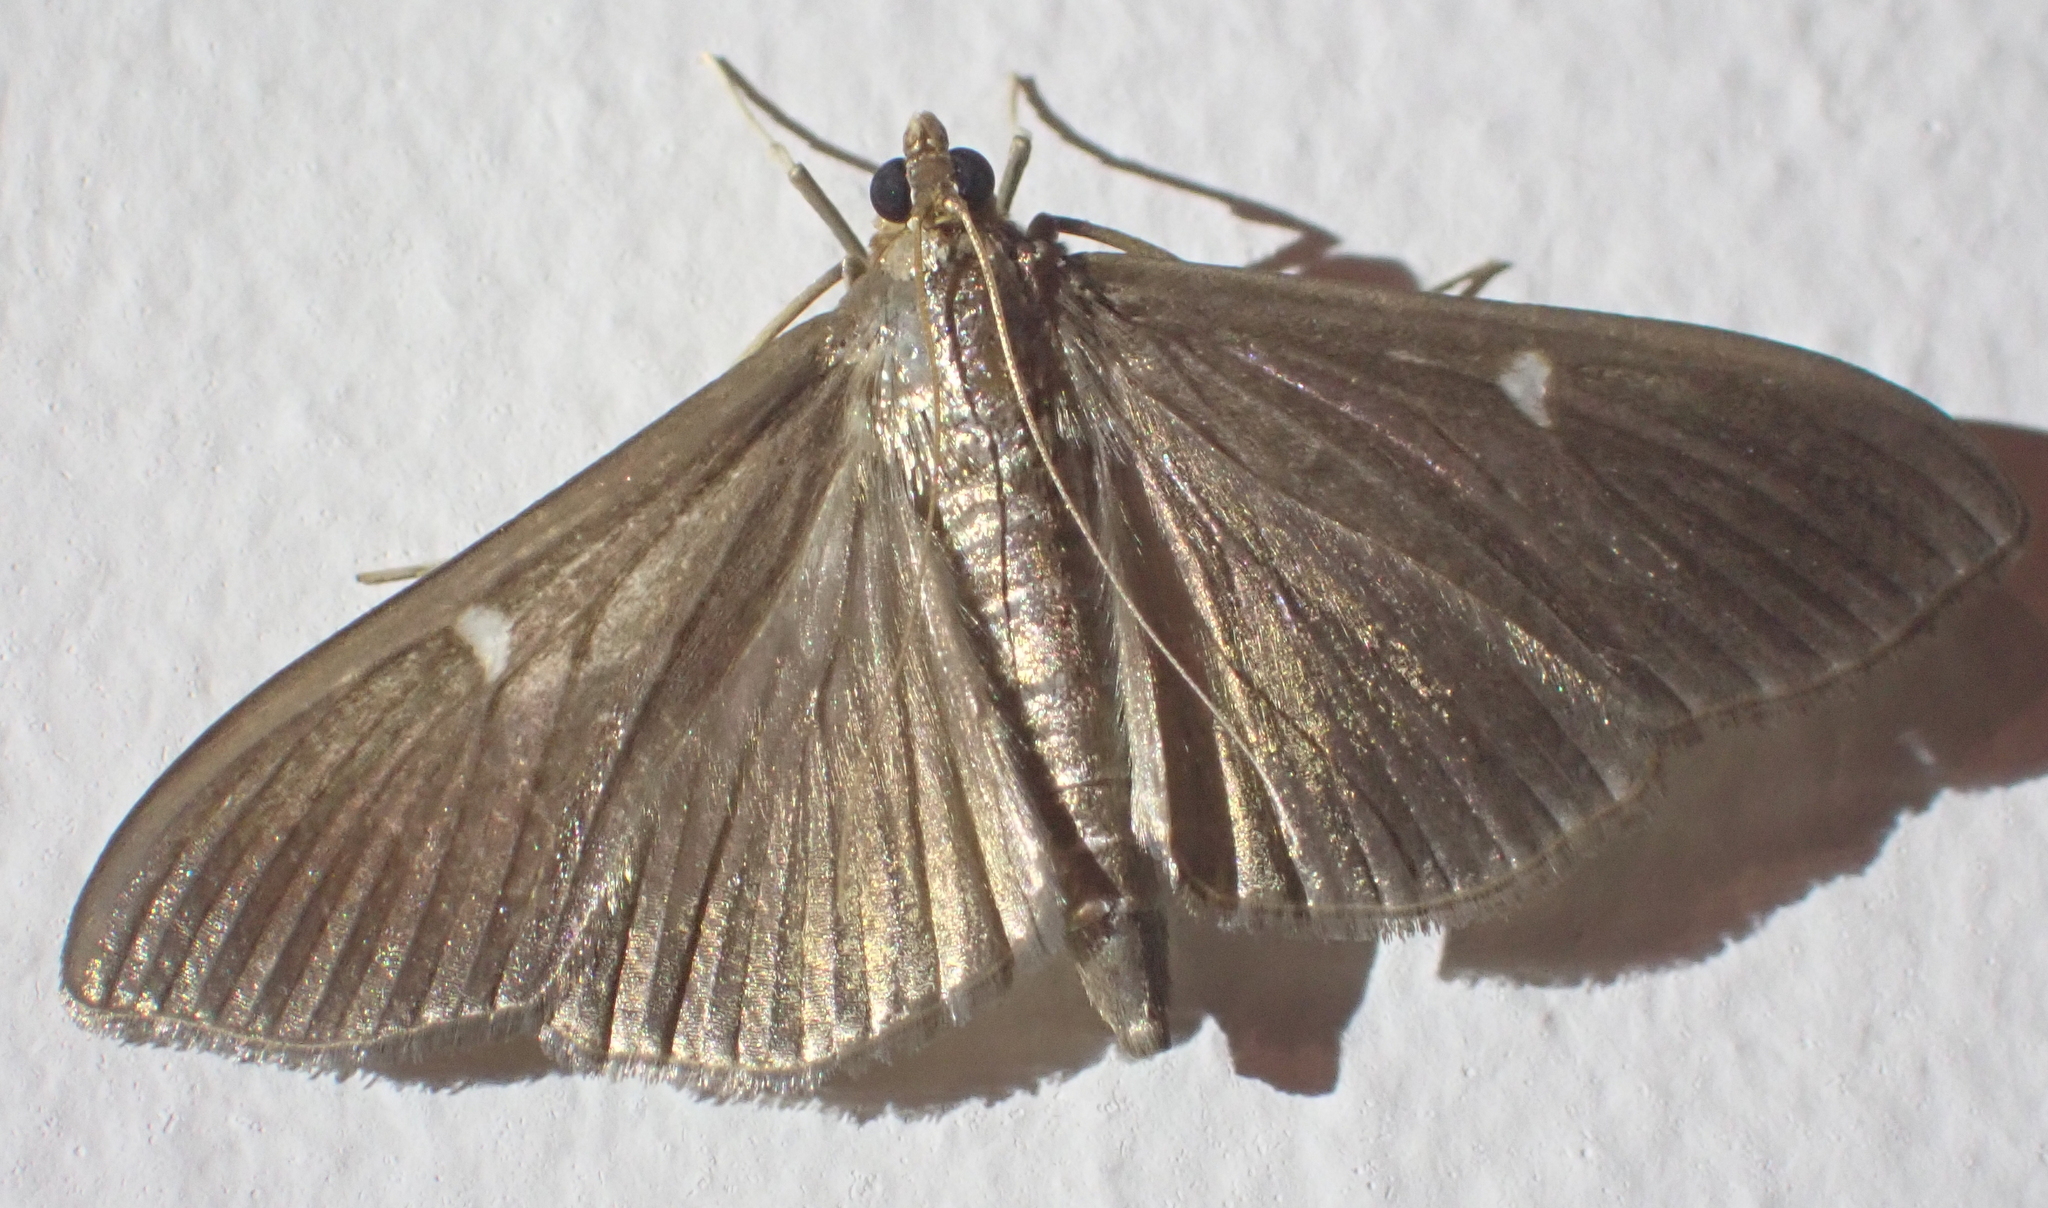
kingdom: Animalia
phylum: Arthropoda
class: Insecta
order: Lepidoptera
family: Crambidae
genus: Cydalima
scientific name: Cydalima perspectalis
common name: Box tree moth
